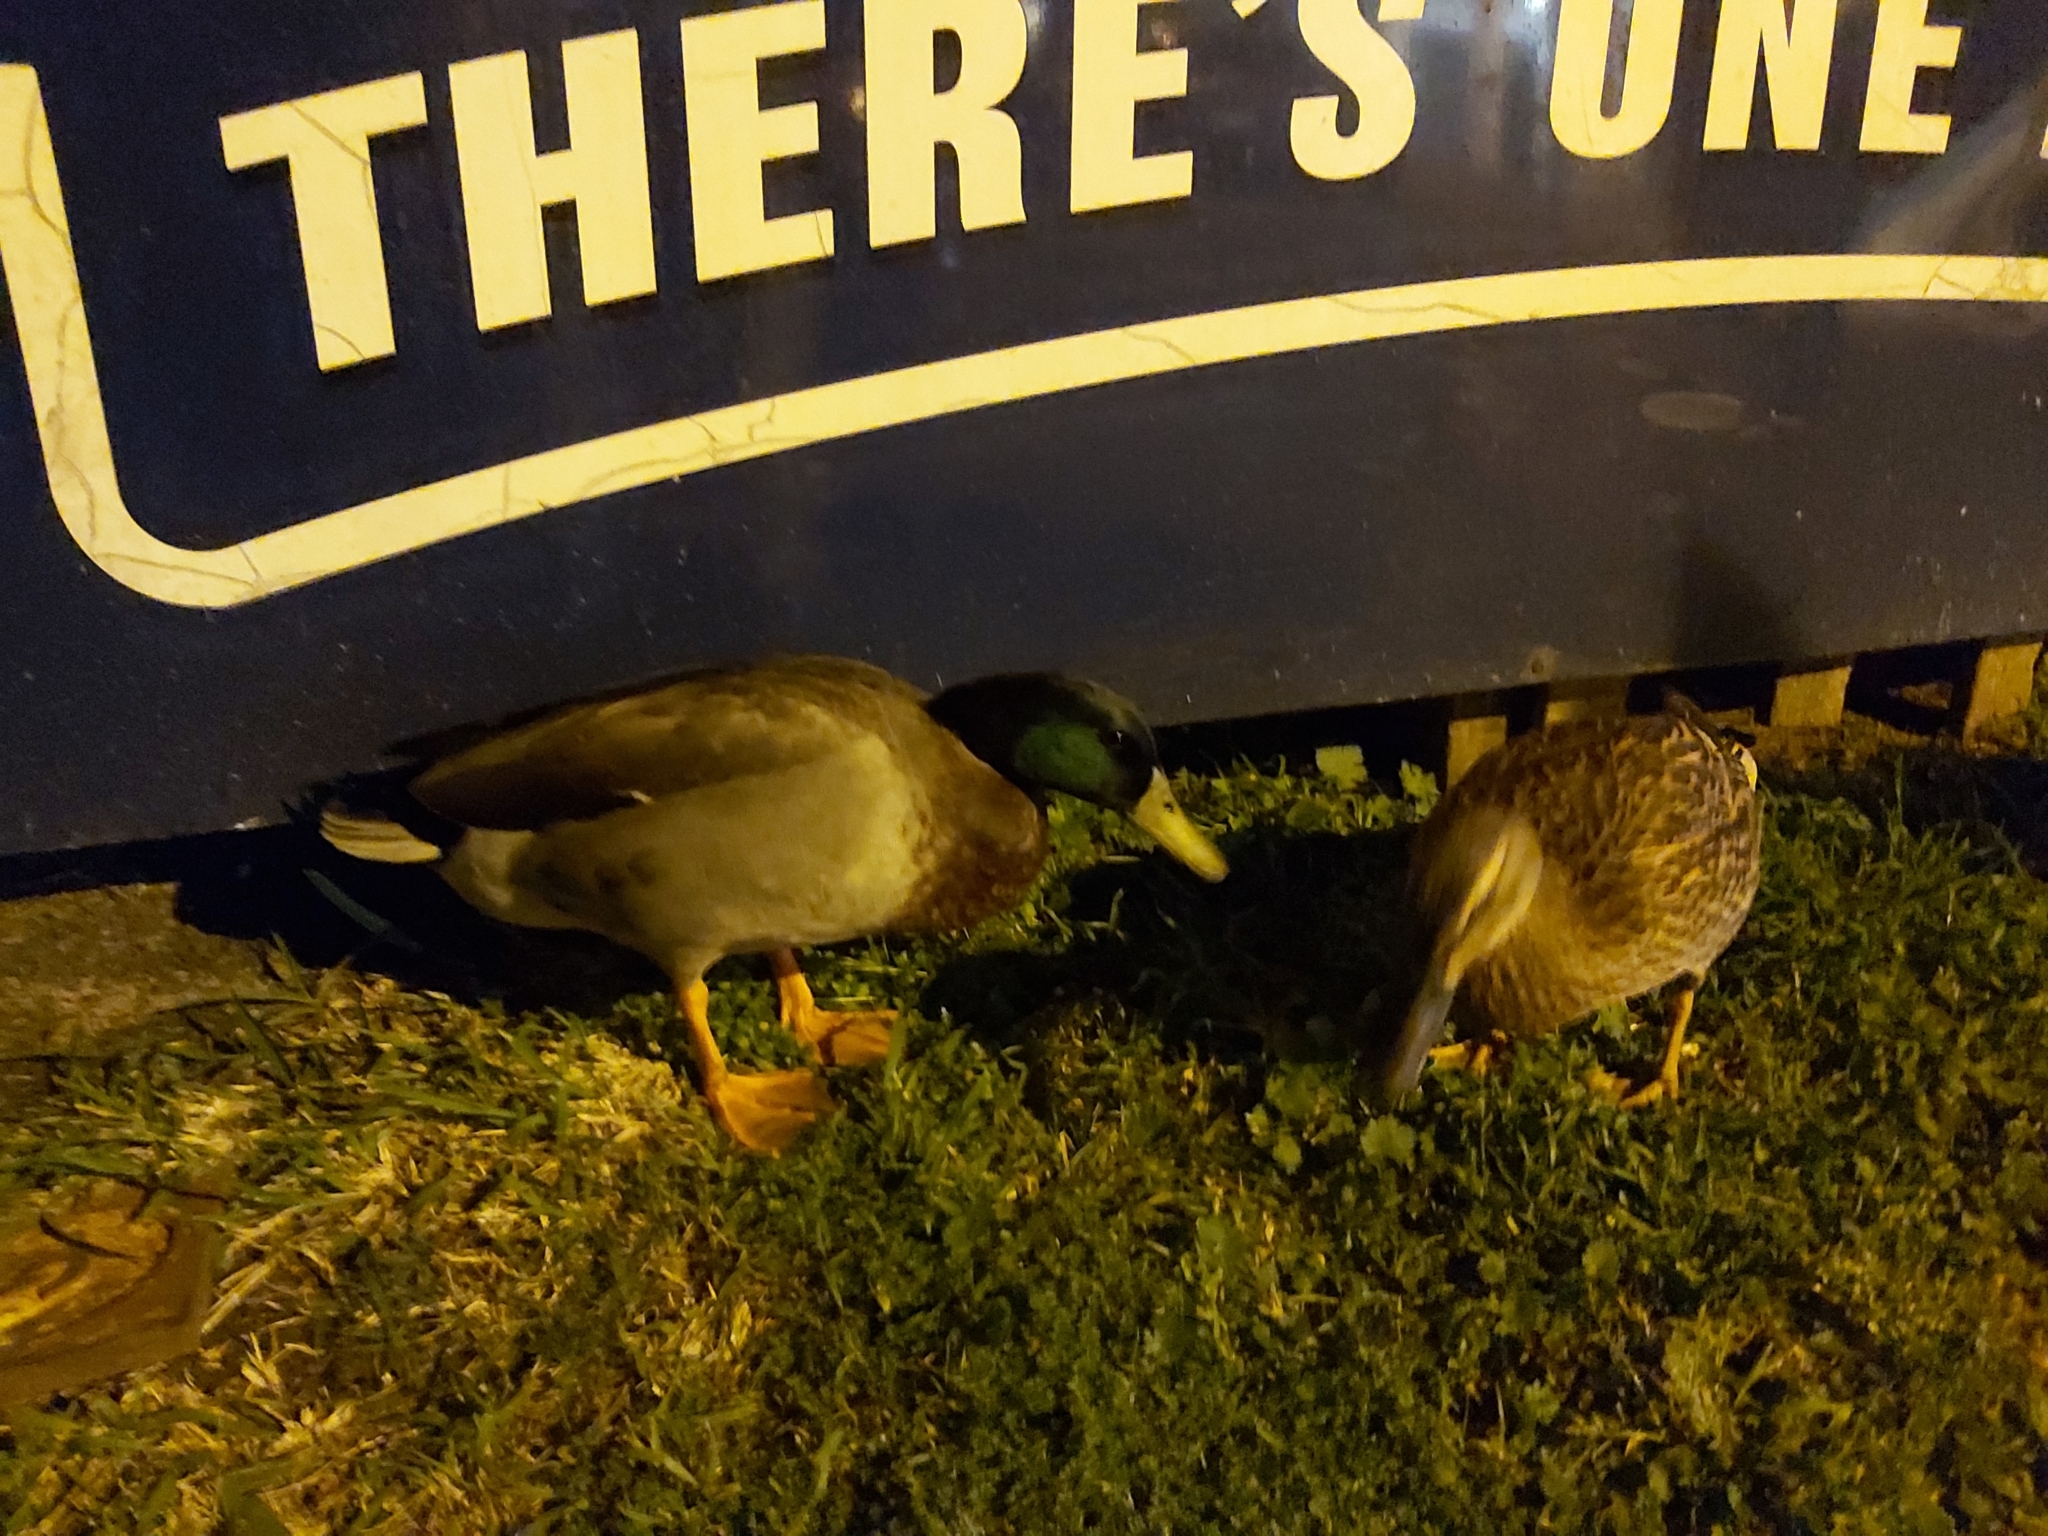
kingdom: Animalia
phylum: Chordata
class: Aves
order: Anseriformes
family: Anatidae
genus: Anas
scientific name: Anas platyrhynchos
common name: Mallard
